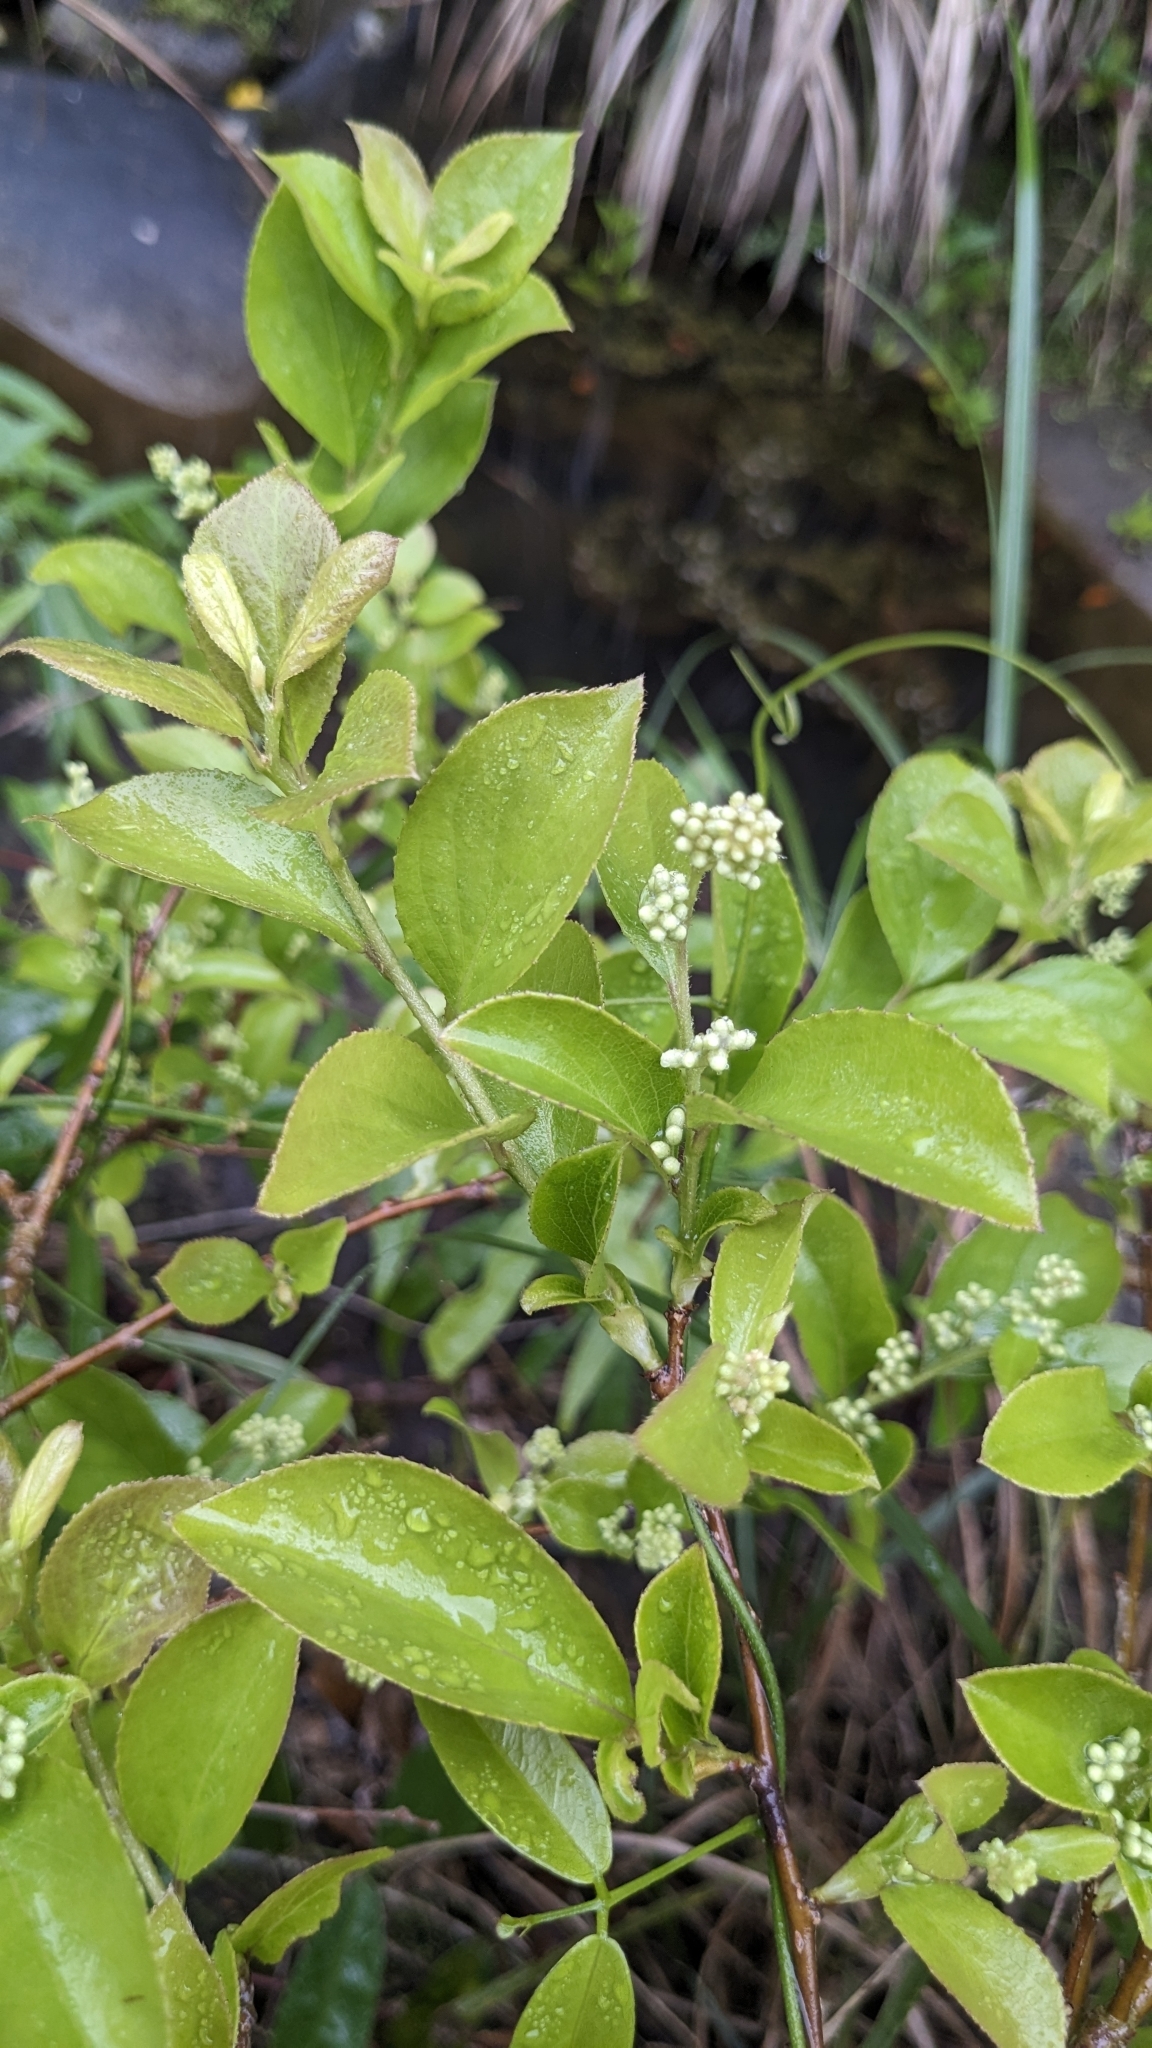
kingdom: Plantae
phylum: Tracheophyta
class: Magnoliopsida
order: Ericales
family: Symplocaceae
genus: Symplocos
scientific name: Symplocos paniculata
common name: Sapphire-berry
